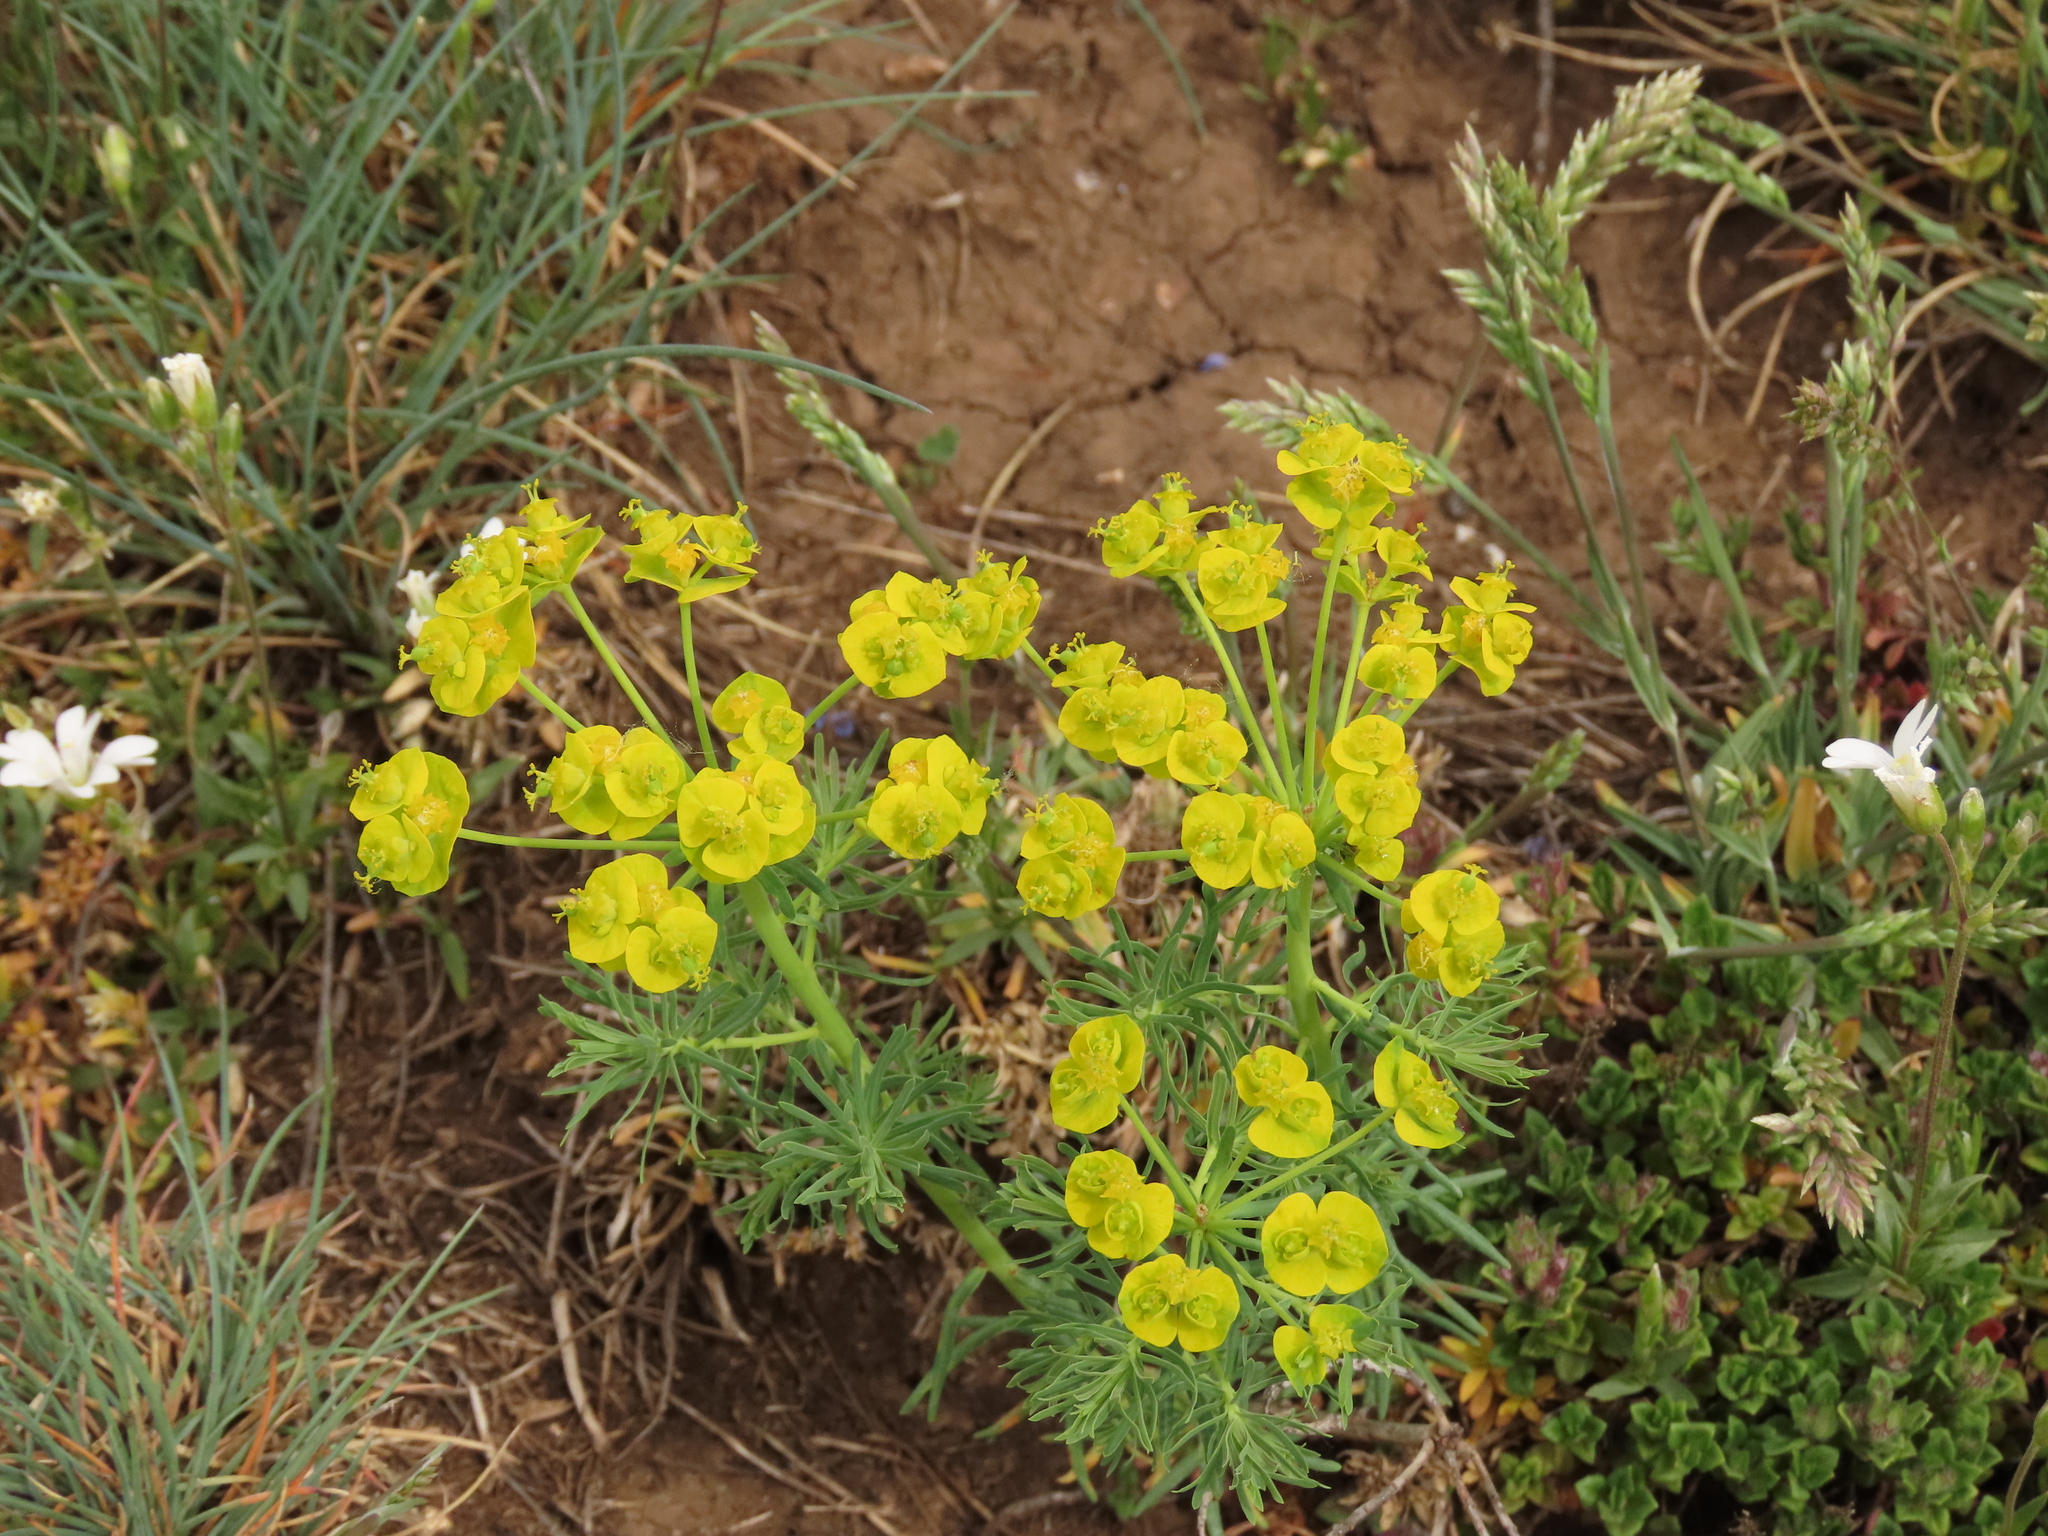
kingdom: Plantae
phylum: Tracheophyta
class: Magnoliopsida
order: Malpighiales
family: Euphorbiaceae
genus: Euphorbia
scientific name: Euphorbia cyparissias
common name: Cypress spurge
